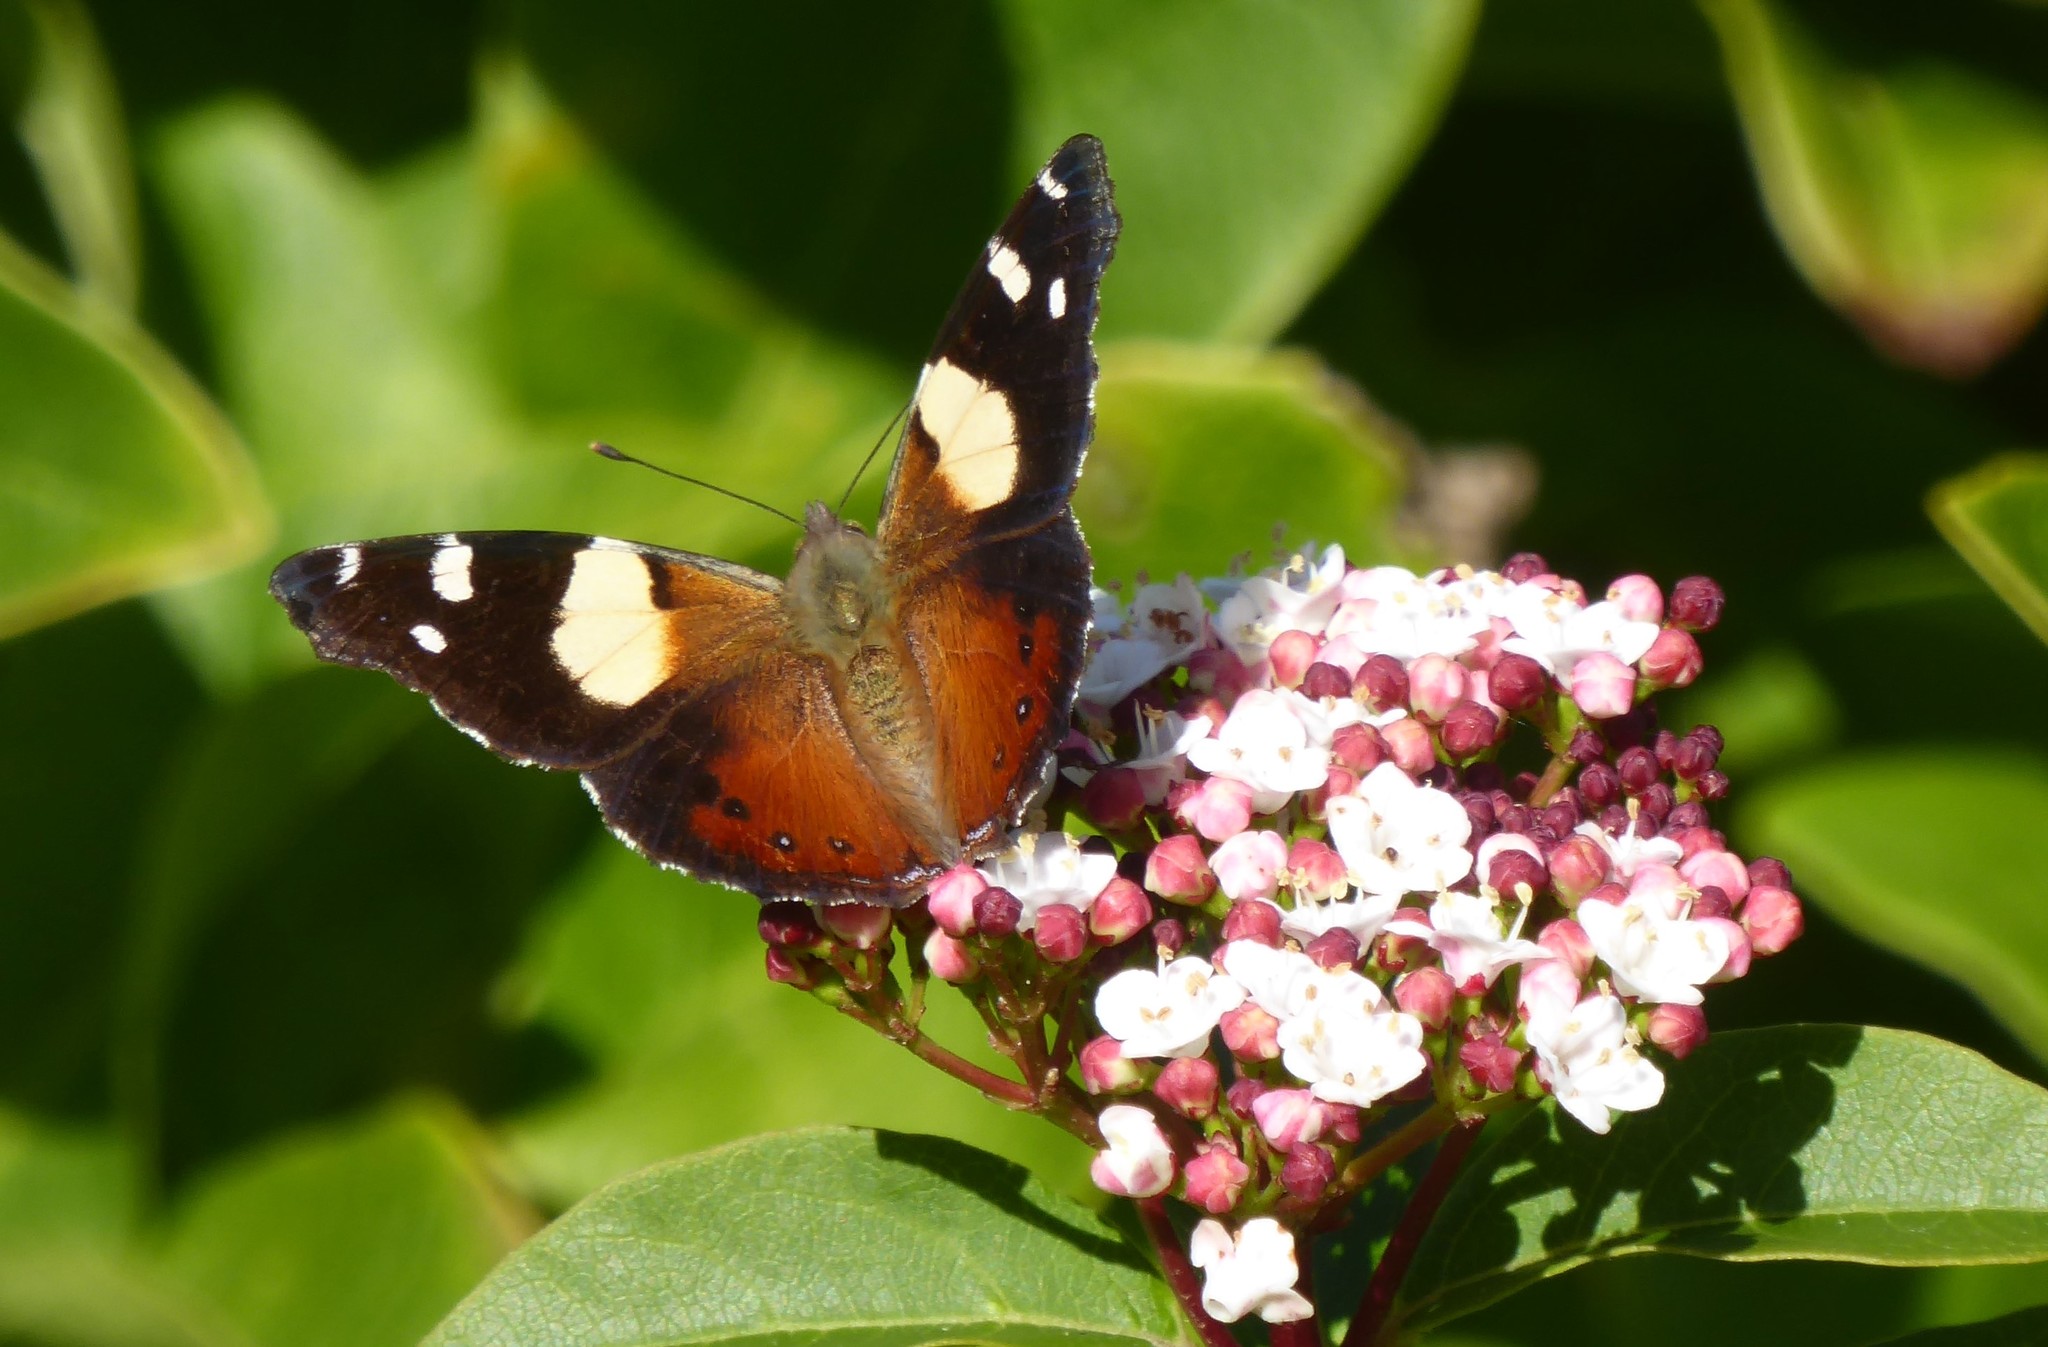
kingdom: Animalia
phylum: Arthropoda
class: Insecta
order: Lepidoptera
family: Nymphalidae
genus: Vanessa
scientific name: Vanessa itea
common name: Yellow admiral
